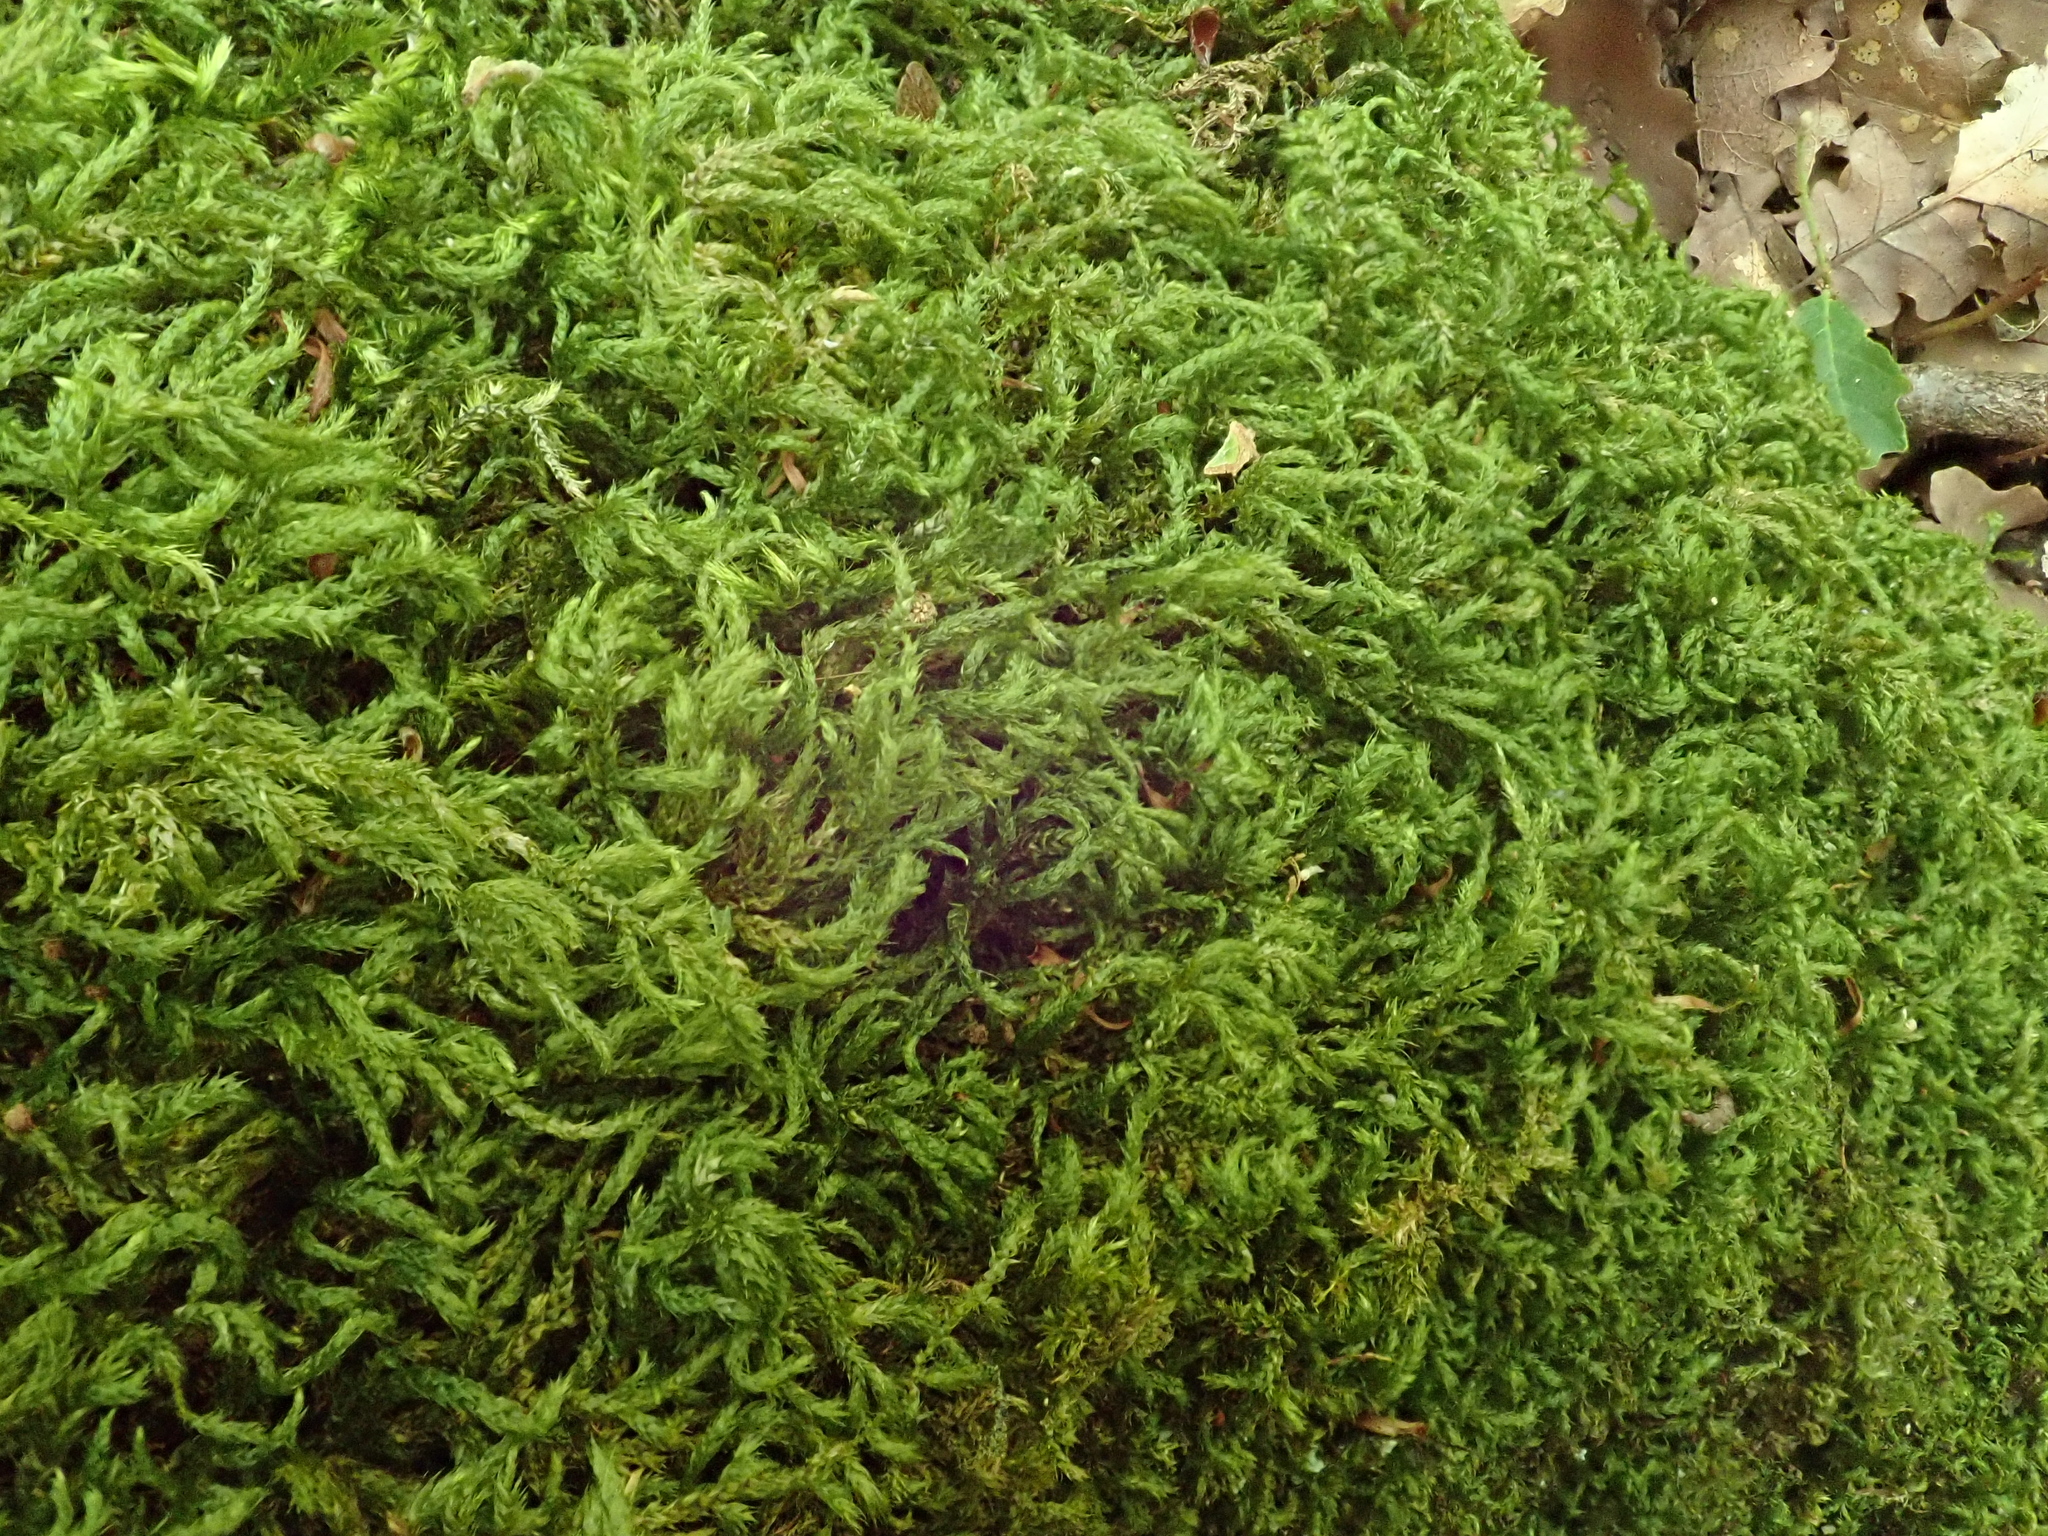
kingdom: Plantae
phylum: Bryophyta
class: Bryopsida
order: Hypnales
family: Brachytheciaceae
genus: Plasteurhynchium
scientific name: Plasteurhynchium striatulum
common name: Lesser striated feather-moss
